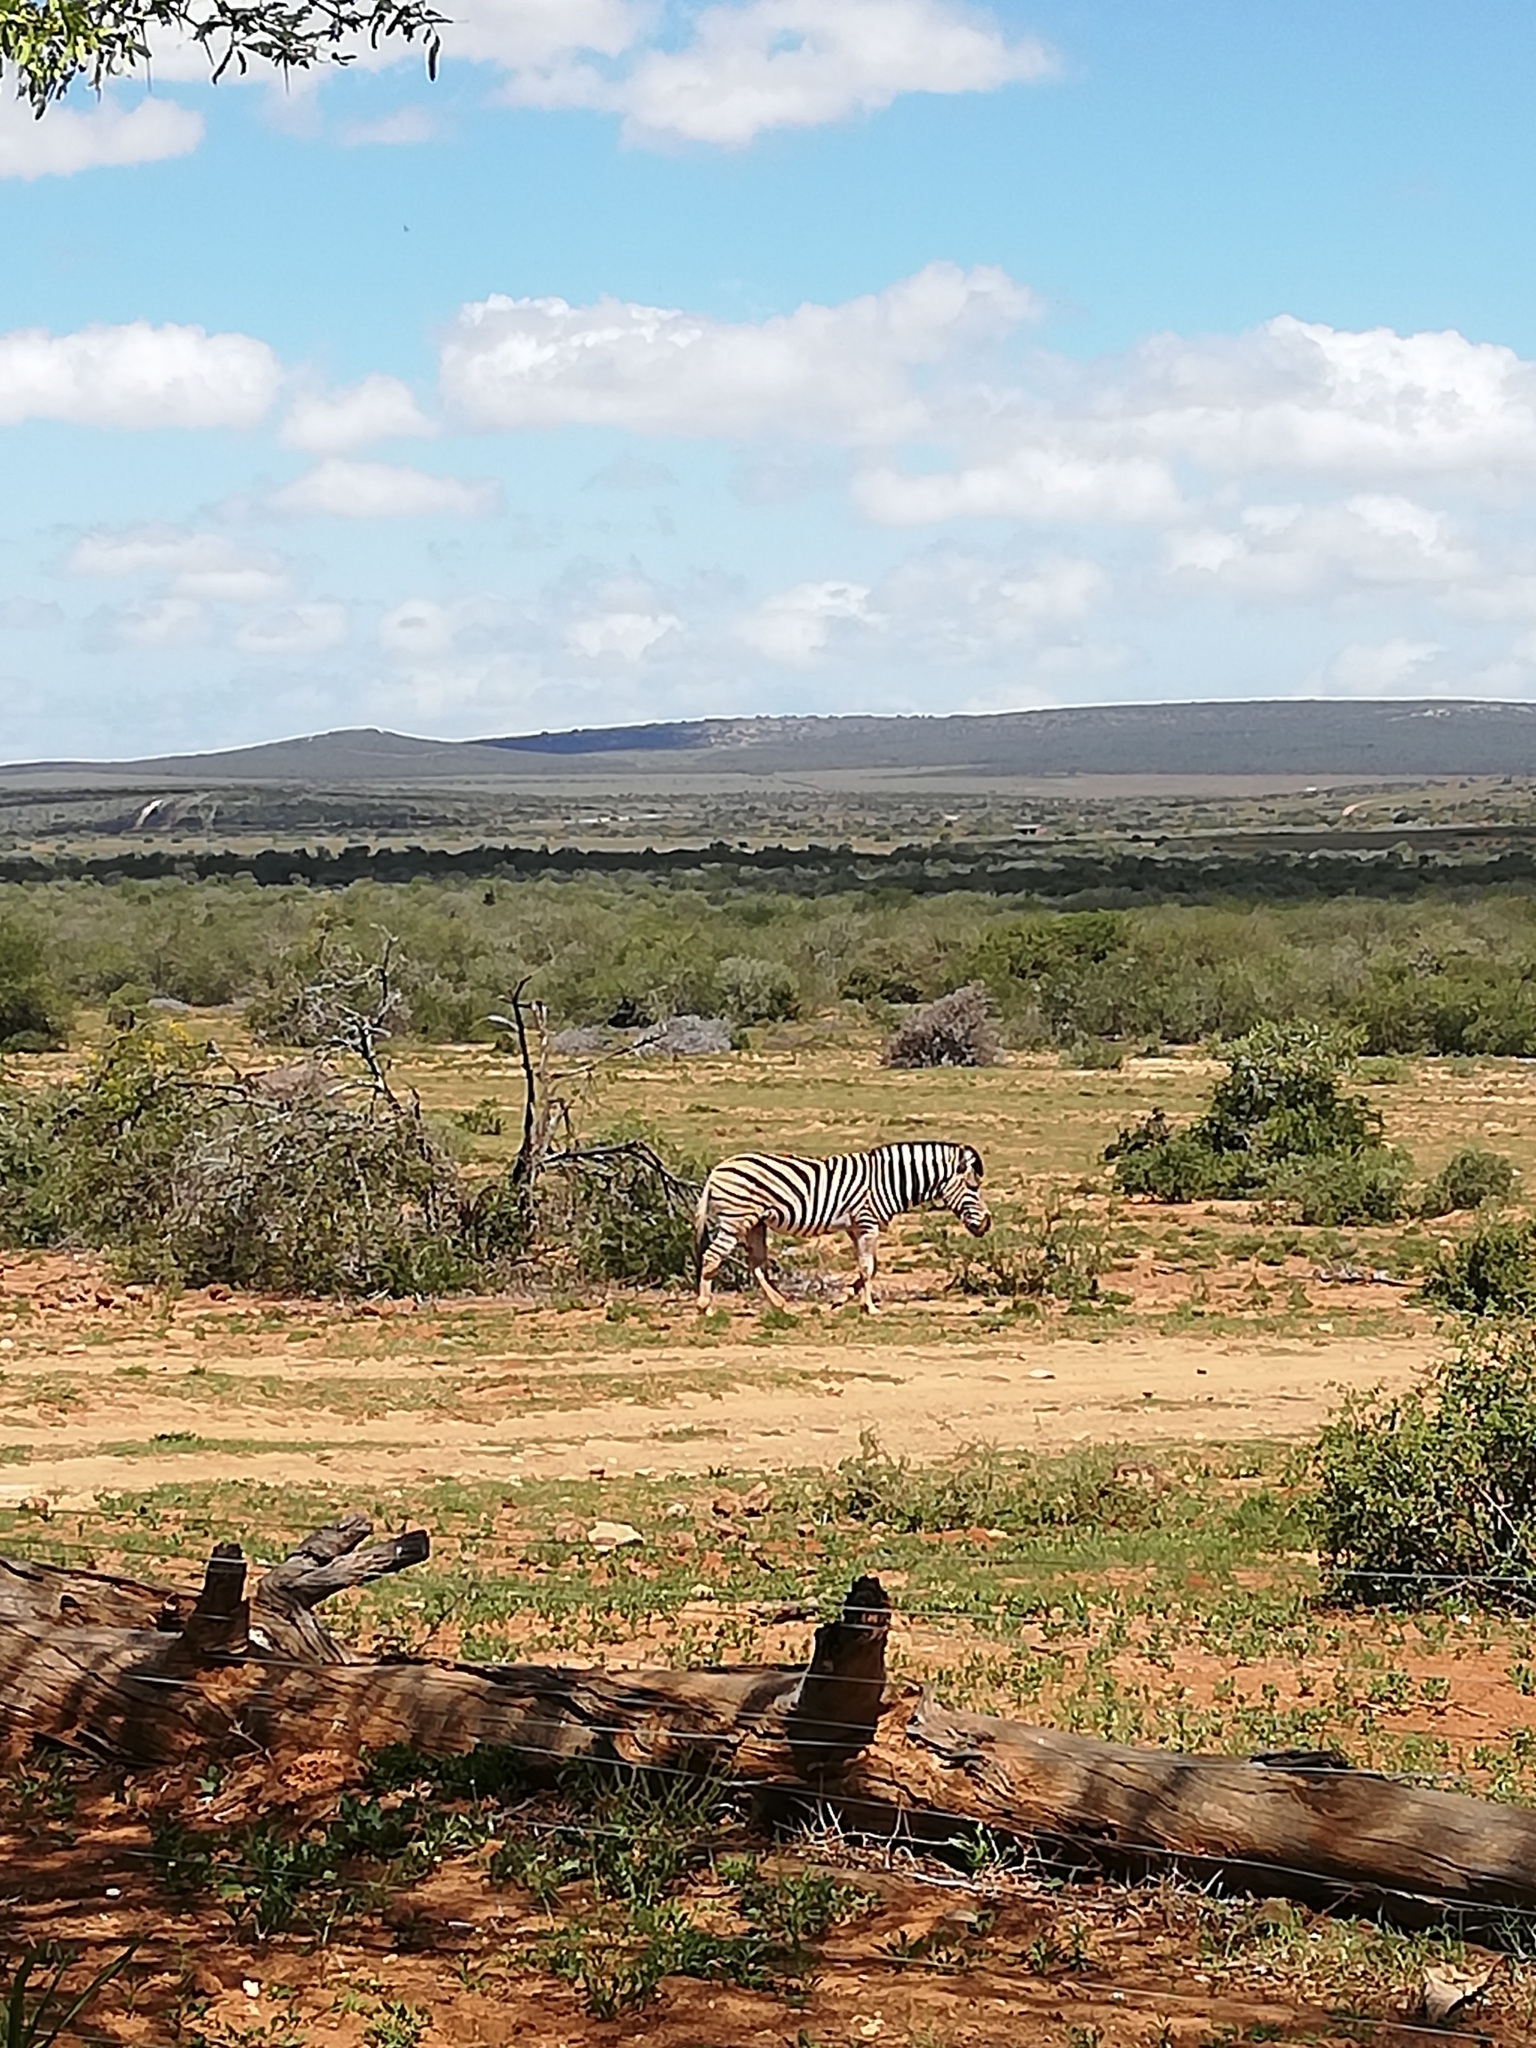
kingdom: Animalia
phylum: Chordata
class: Mammalia
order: Perissodactyla
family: Equidae
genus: Equus
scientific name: Equus quagga
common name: Plains zebra
